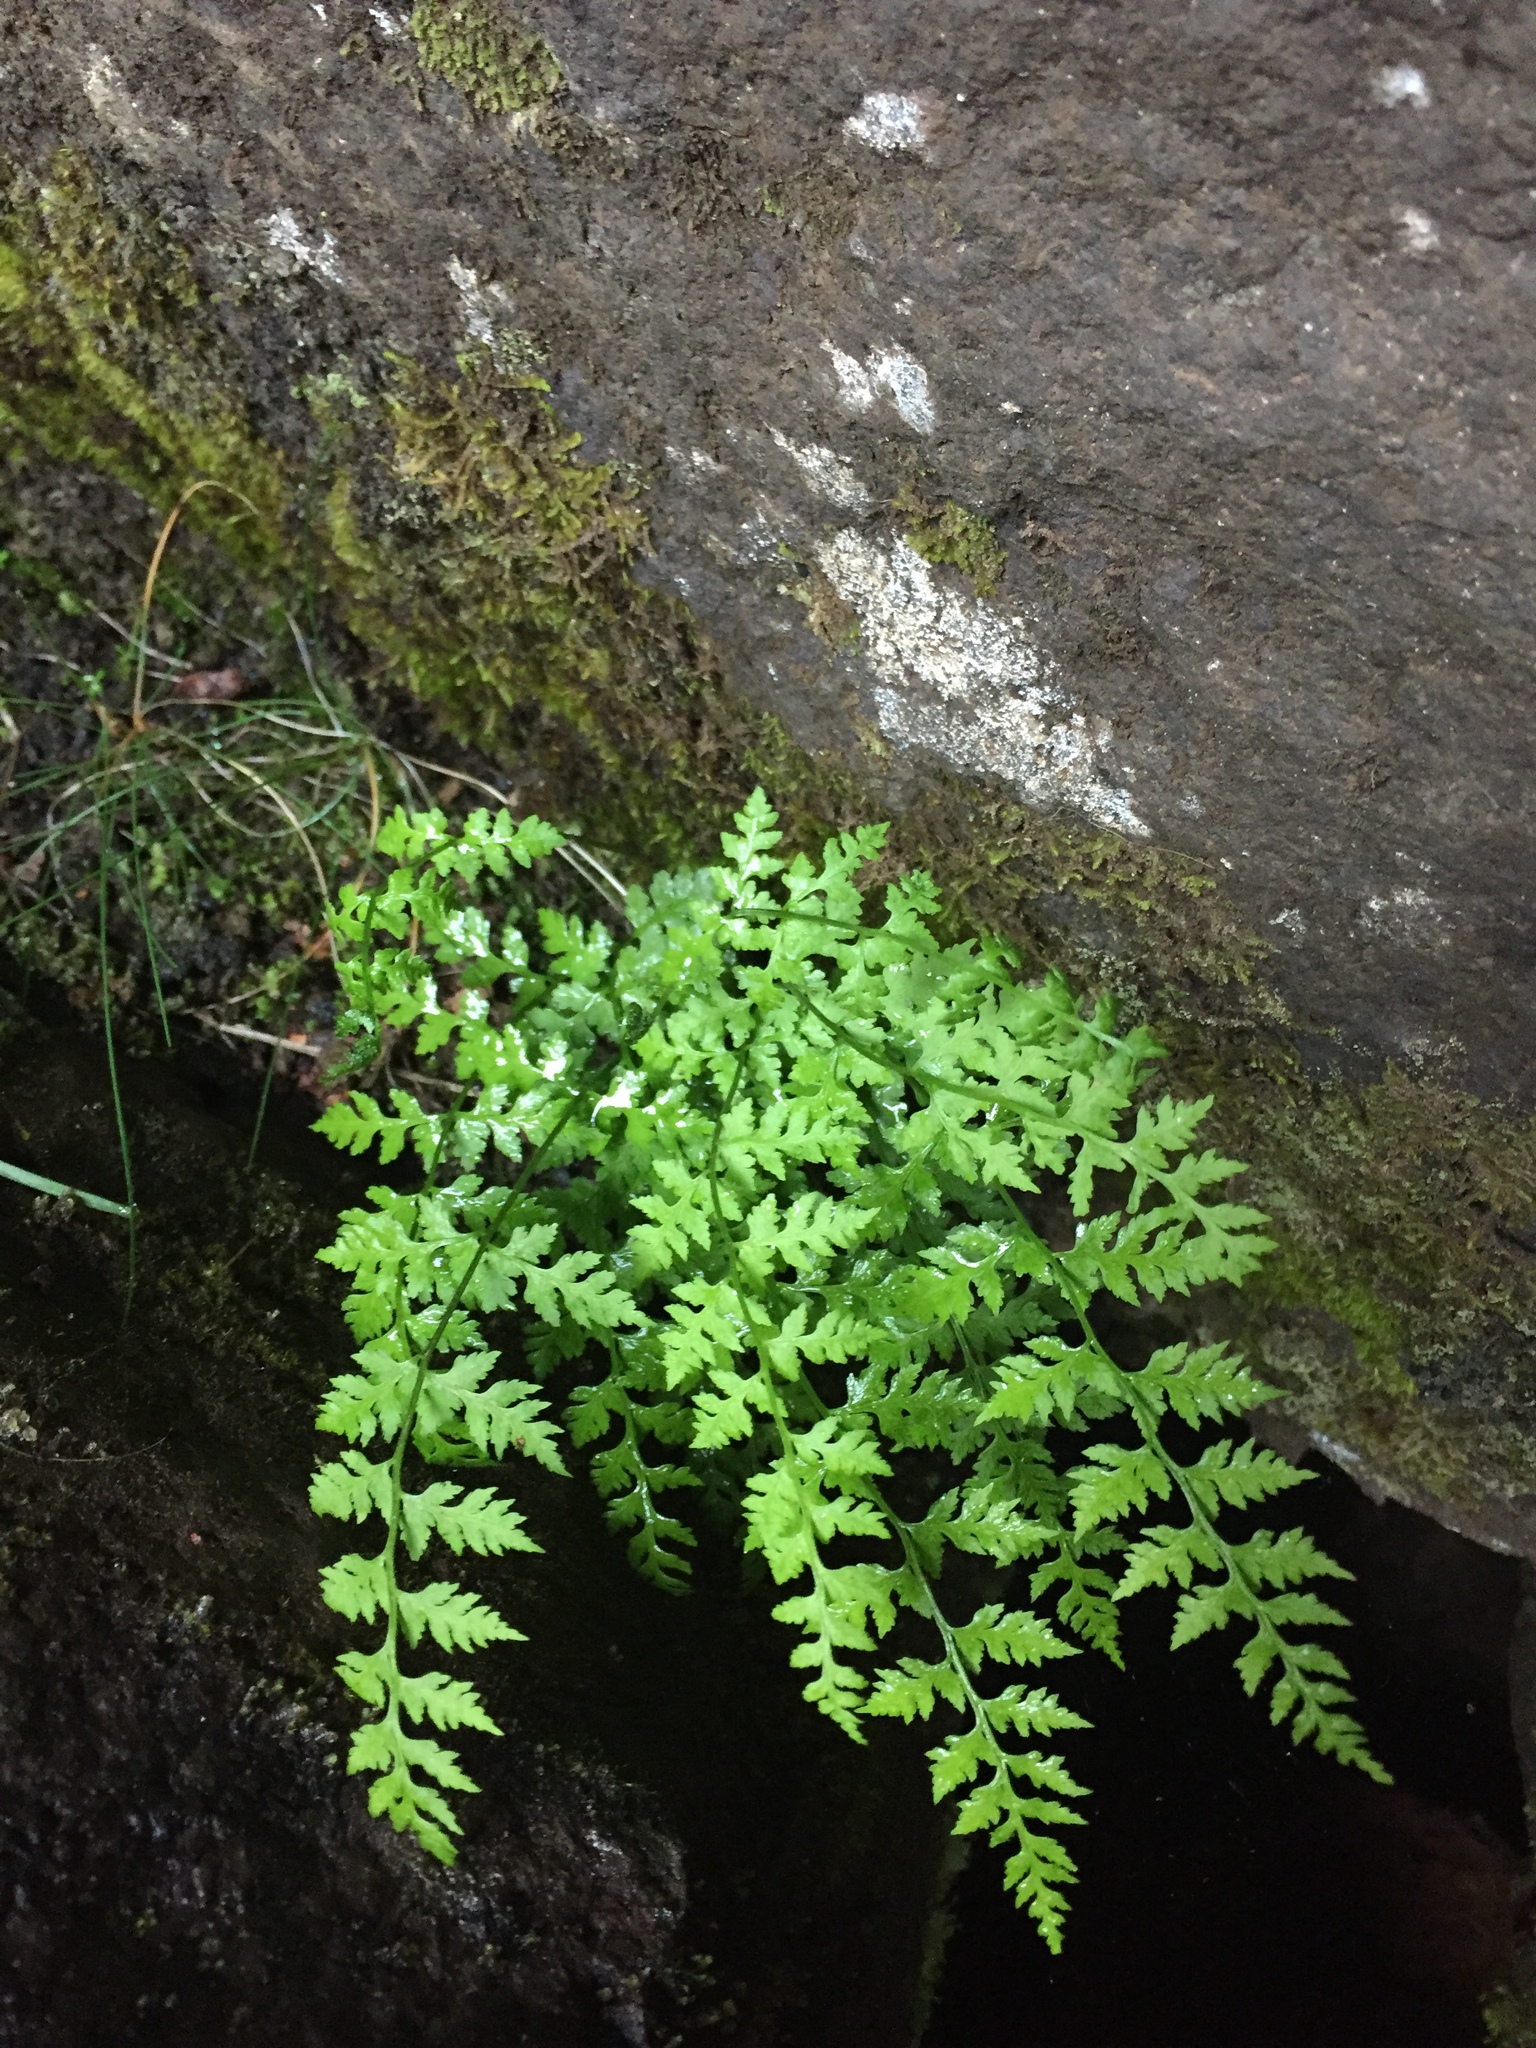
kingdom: Plantae
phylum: Tracheophyta
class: Polypodiopsida
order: Polypodiales
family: Cystopteridaceae
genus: Cystopteris
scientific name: Cystopteris fragilis
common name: Brittle bladder fern
